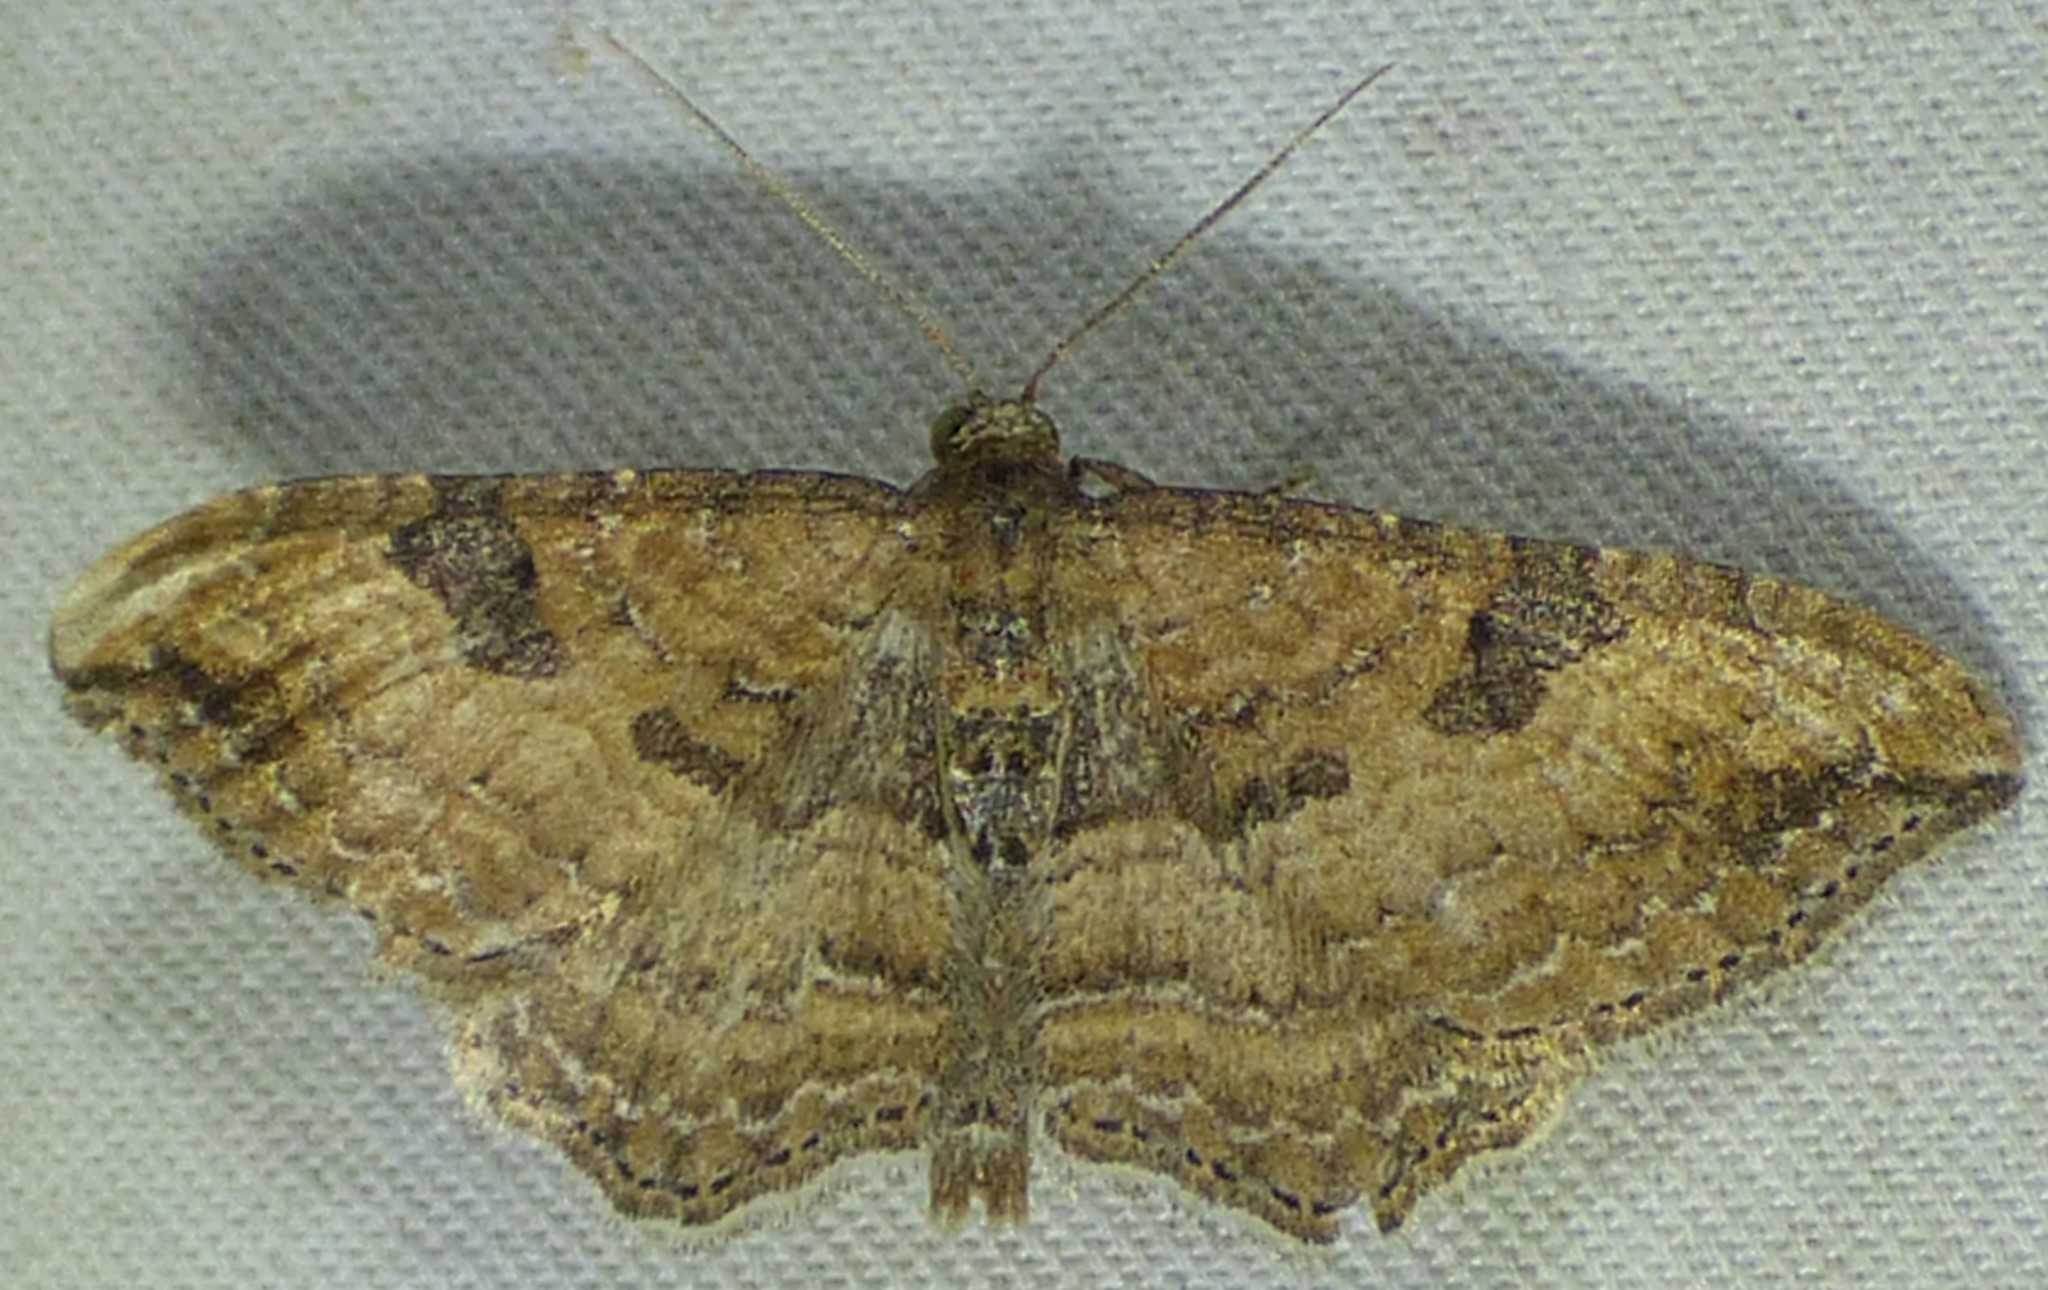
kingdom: Animalia
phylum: Arthropoda
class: Insecta
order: Lepidoptera
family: Geometridae
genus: Orthonama
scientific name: Orthonama obstipata
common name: The gem
